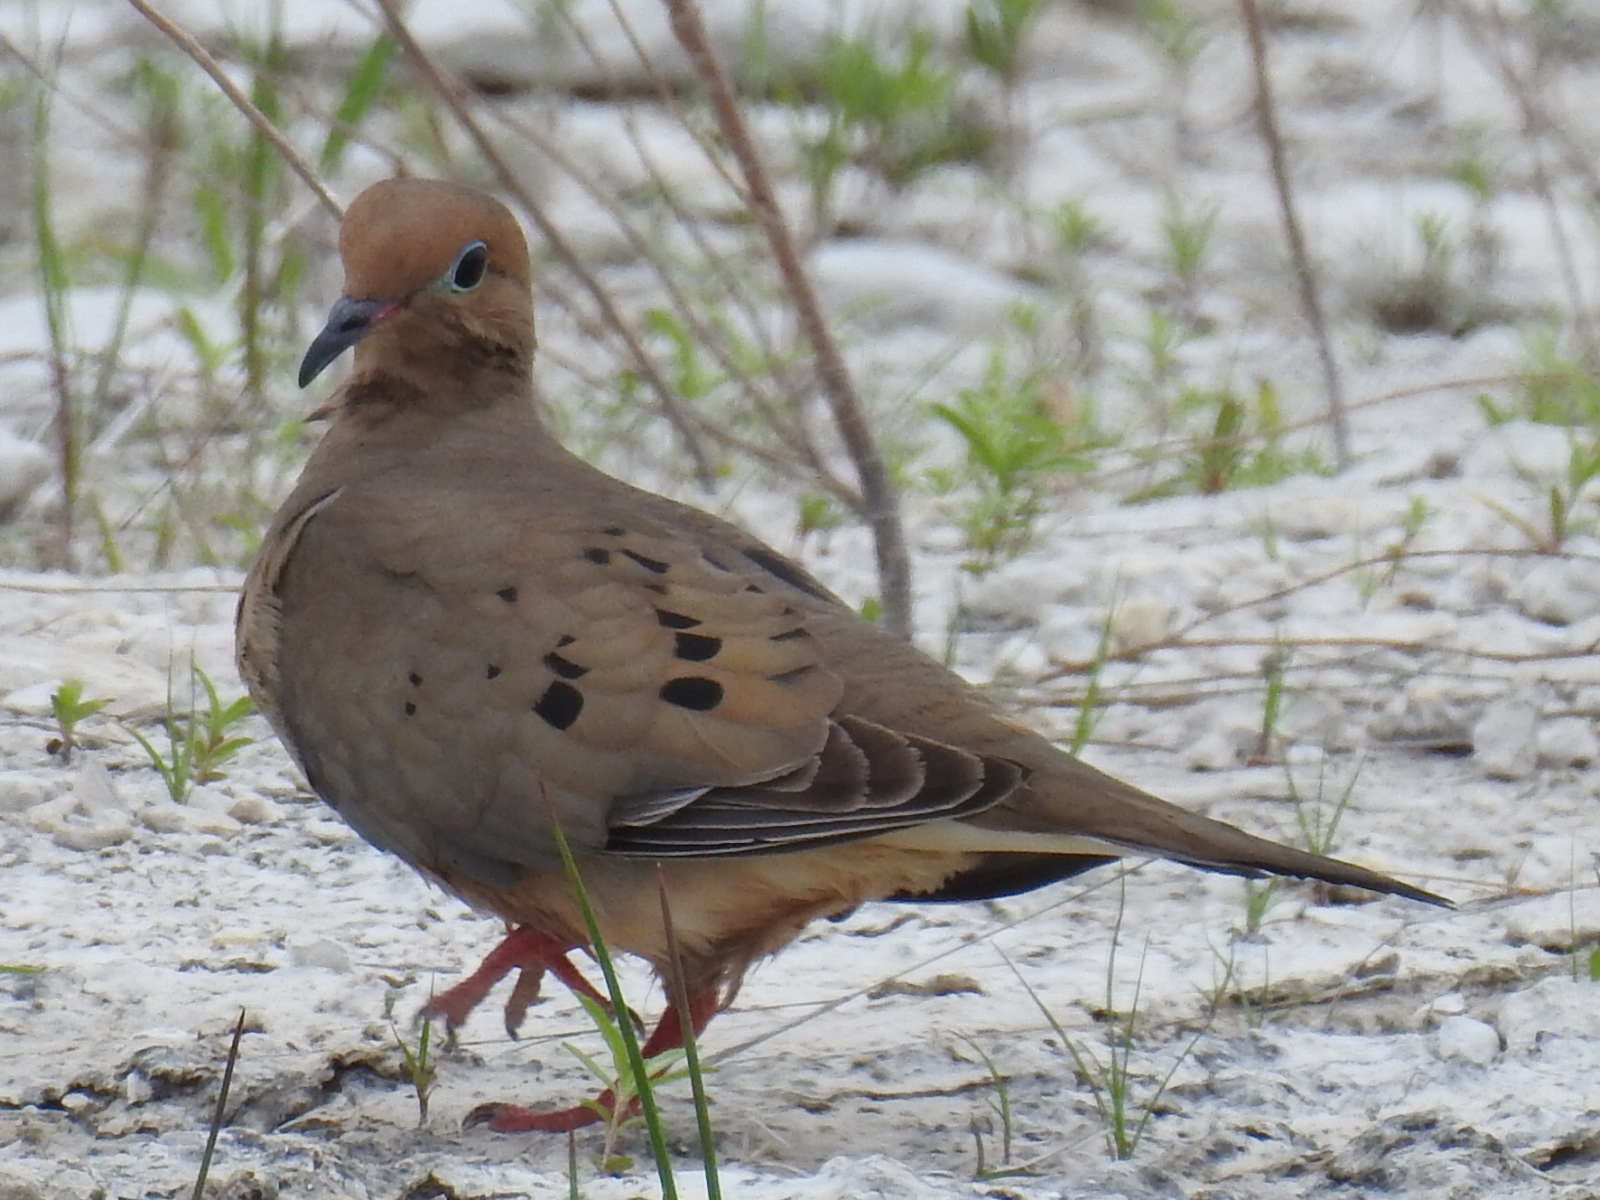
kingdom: Animalia
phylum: Chordata
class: Aves
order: Columbiformes
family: Columbidae
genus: Zenaida
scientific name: Zenaida macroura
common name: Mourning dove
